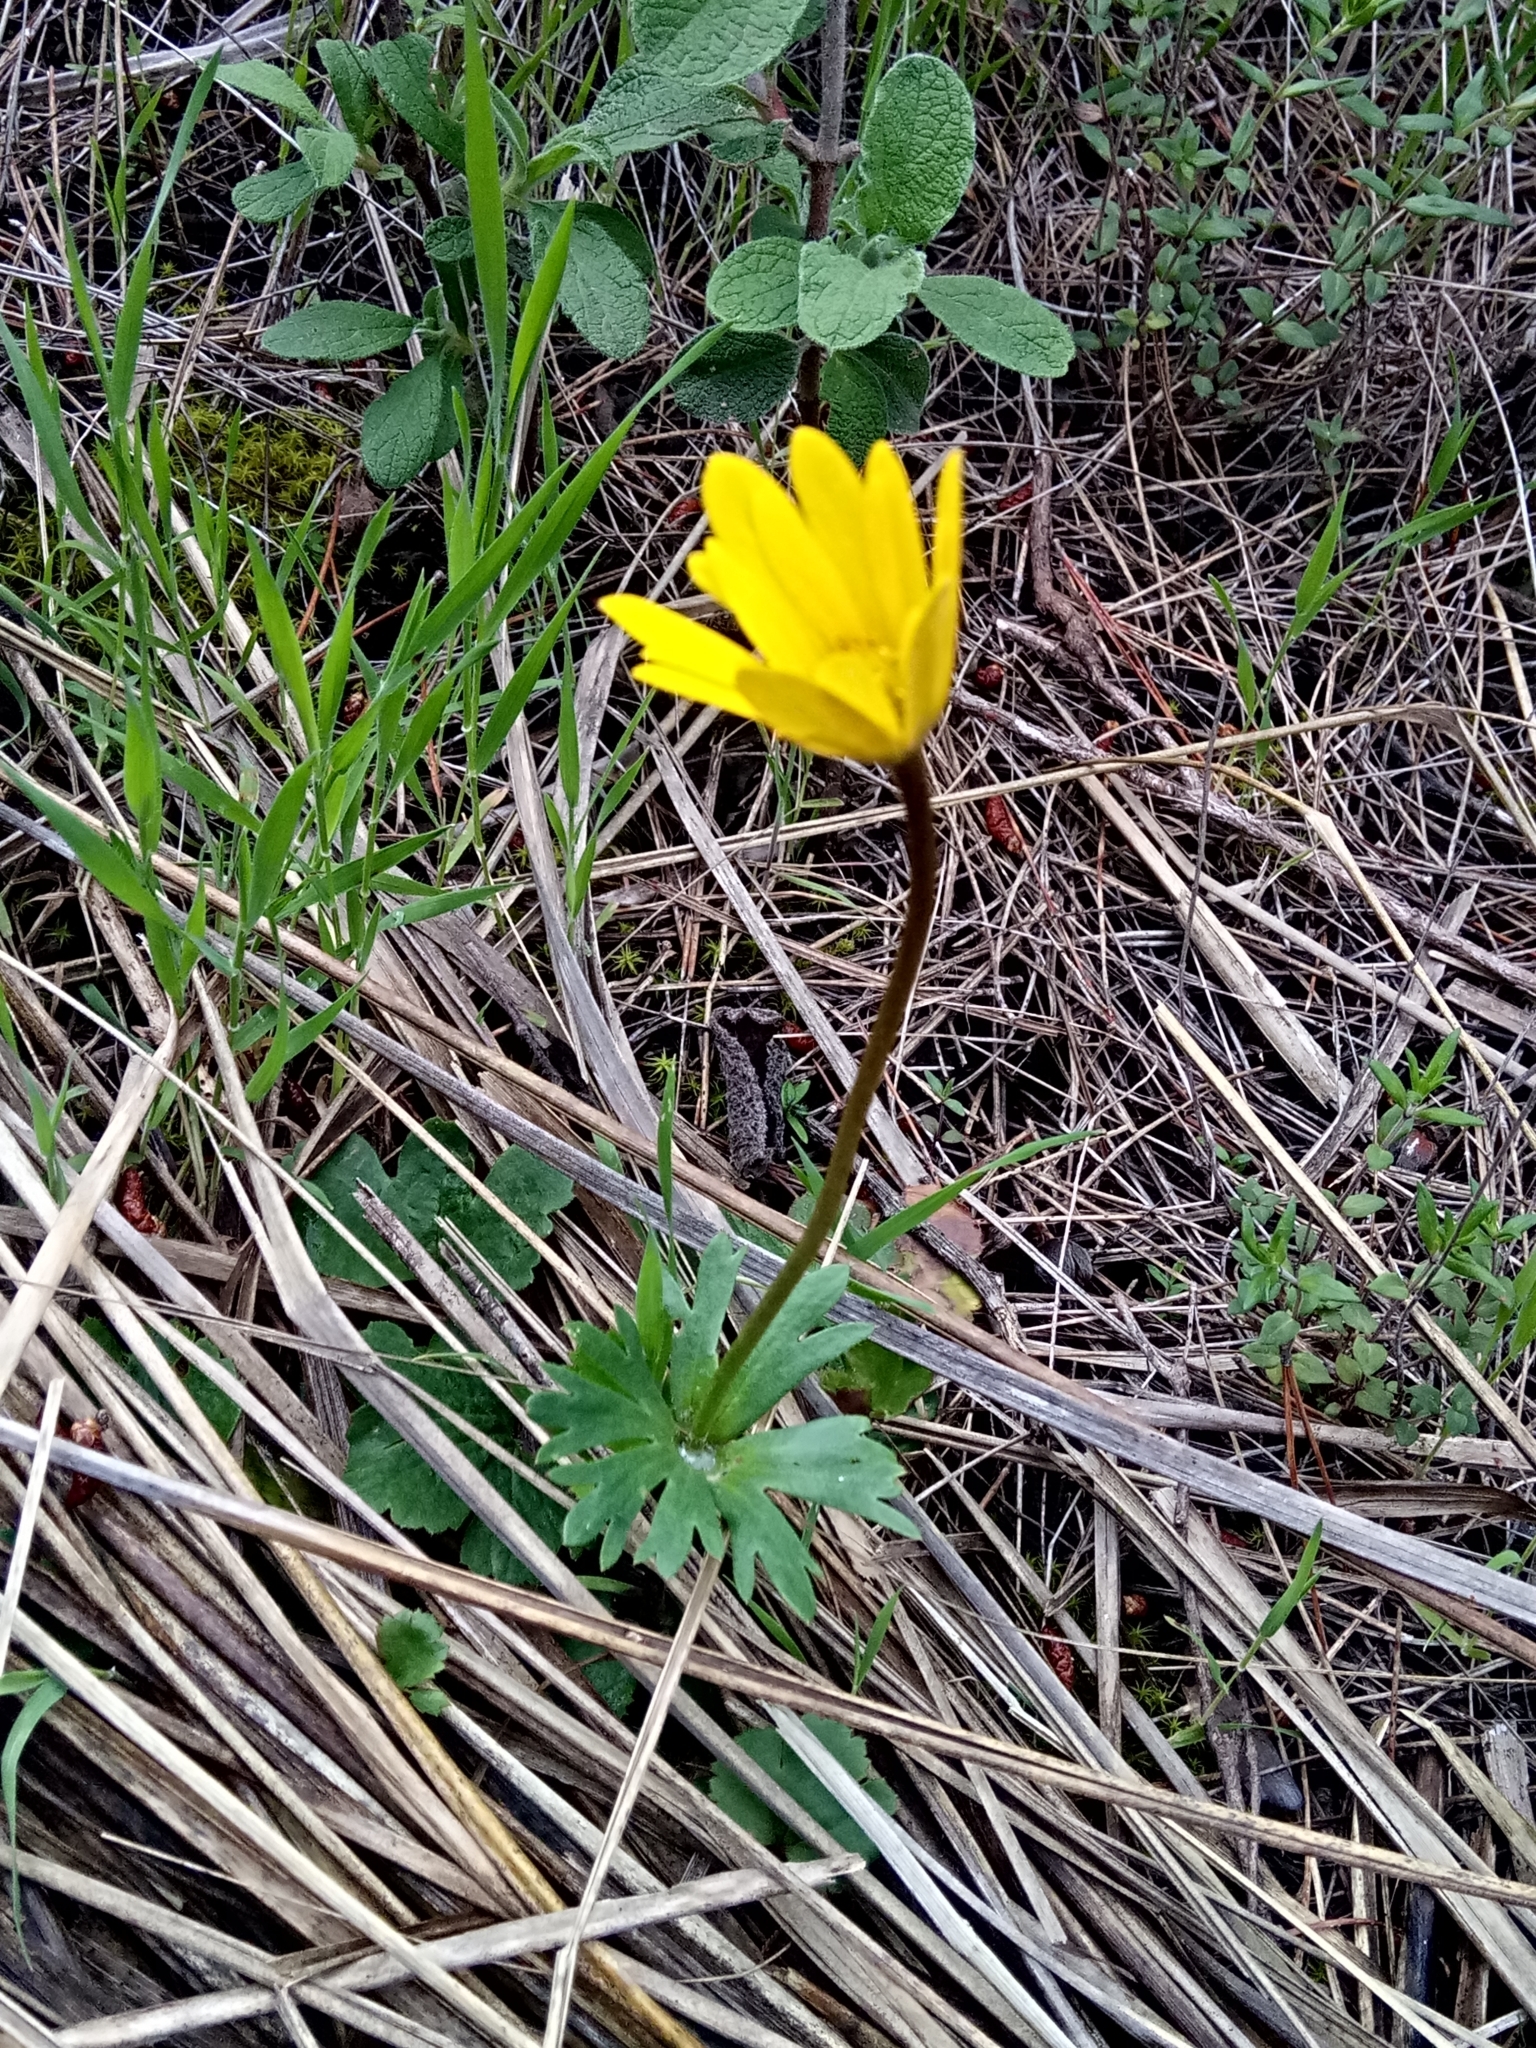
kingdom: Plantae
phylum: Tracheophyta
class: Magnoliopsida
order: Ranunculales
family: Ranunculaceae
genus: Anemone
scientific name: Anemone palmata
